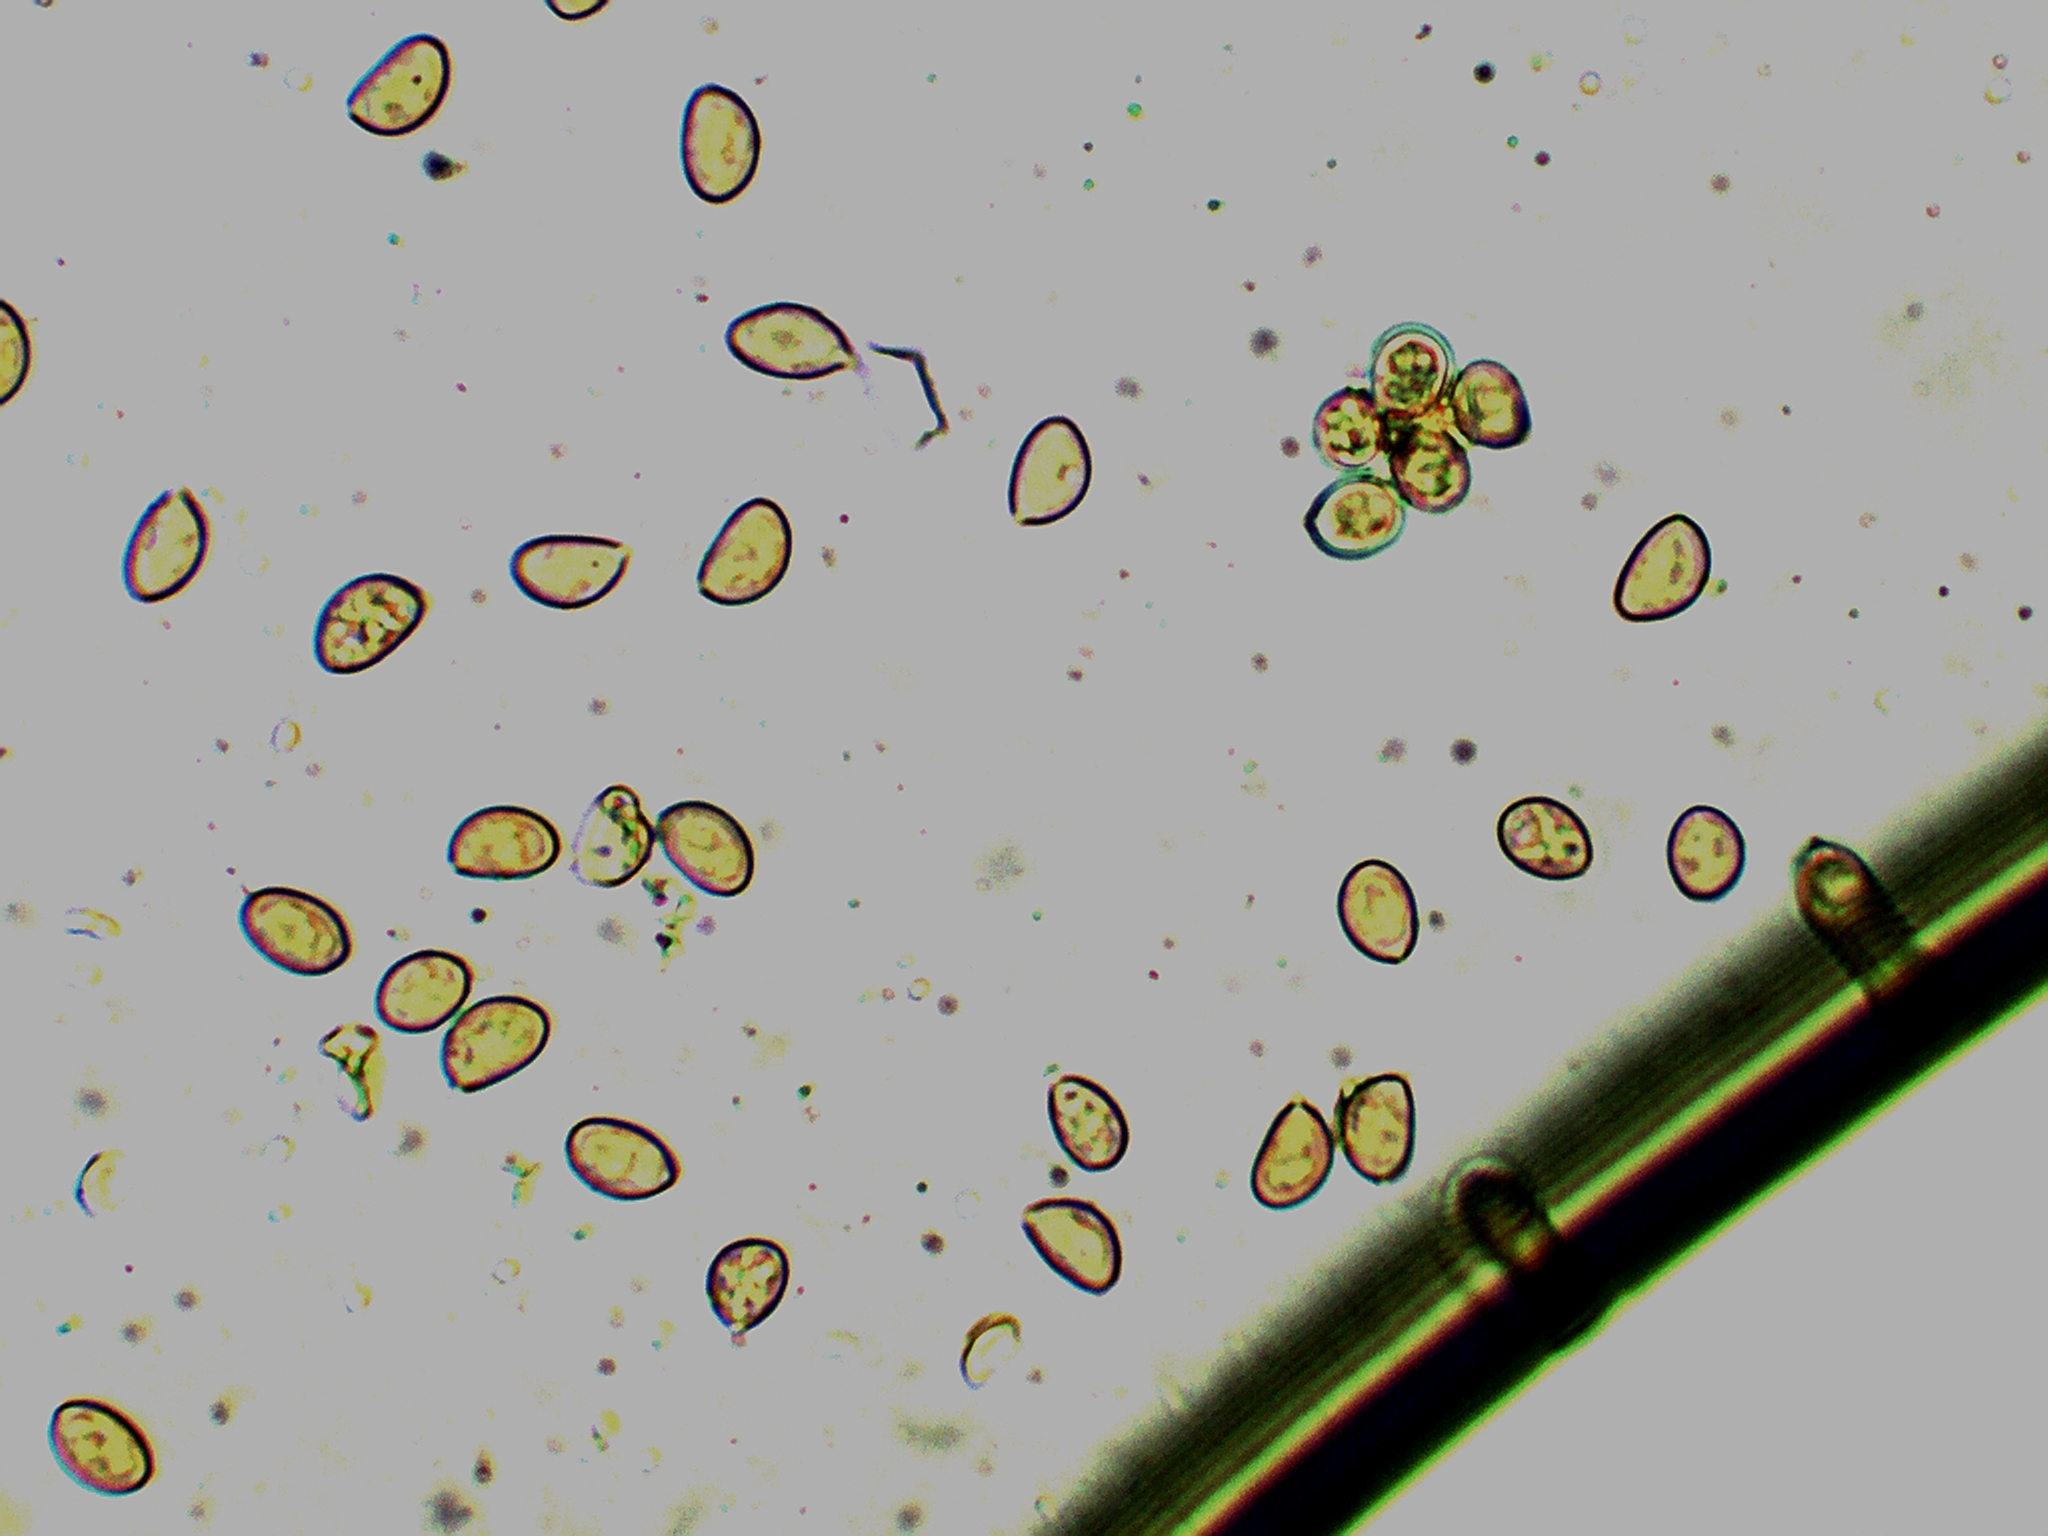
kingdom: Fungi
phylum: Basidiomycota
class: Agaricomycetes
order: Agaricales
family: Strophariaceae
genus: Pholiota
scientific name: Pholiota tuberculosa
